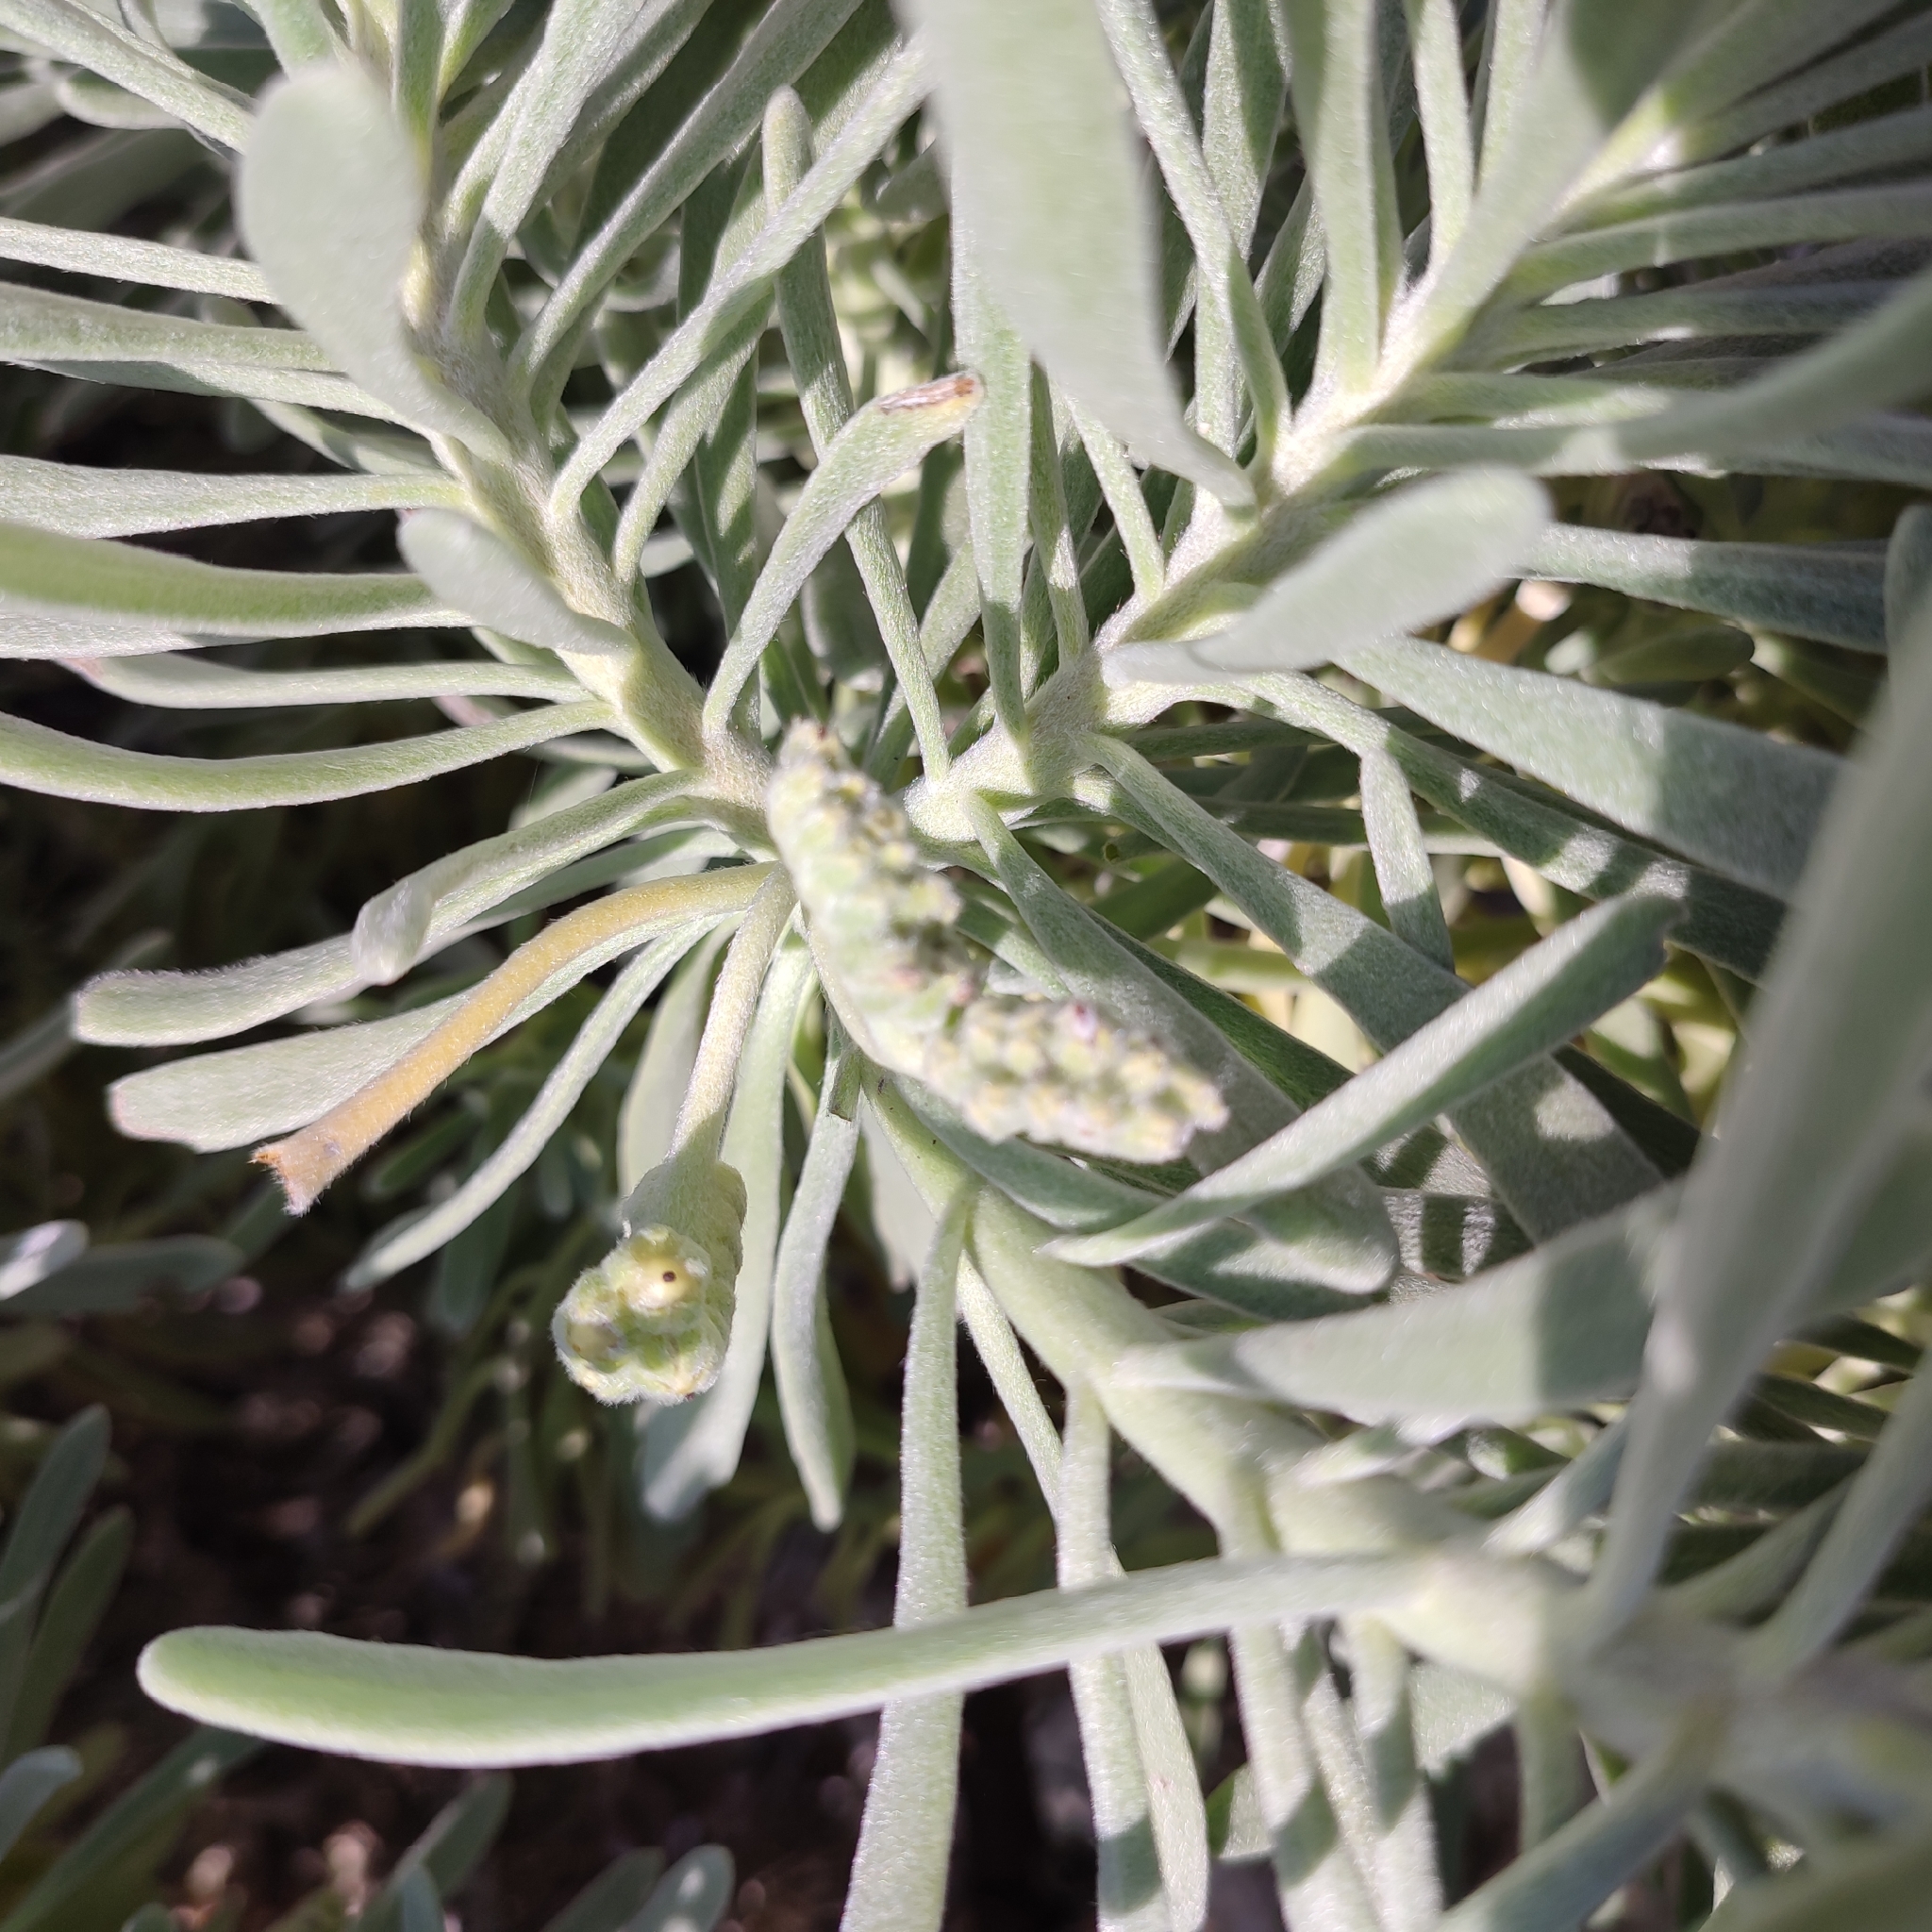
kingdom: Plantae
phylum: Tracheophyta
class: Magnoliopsida
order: Boraginales
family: Heliotropiaceae
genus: Tournefortia
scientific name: Tournefortia gnaphalodes
